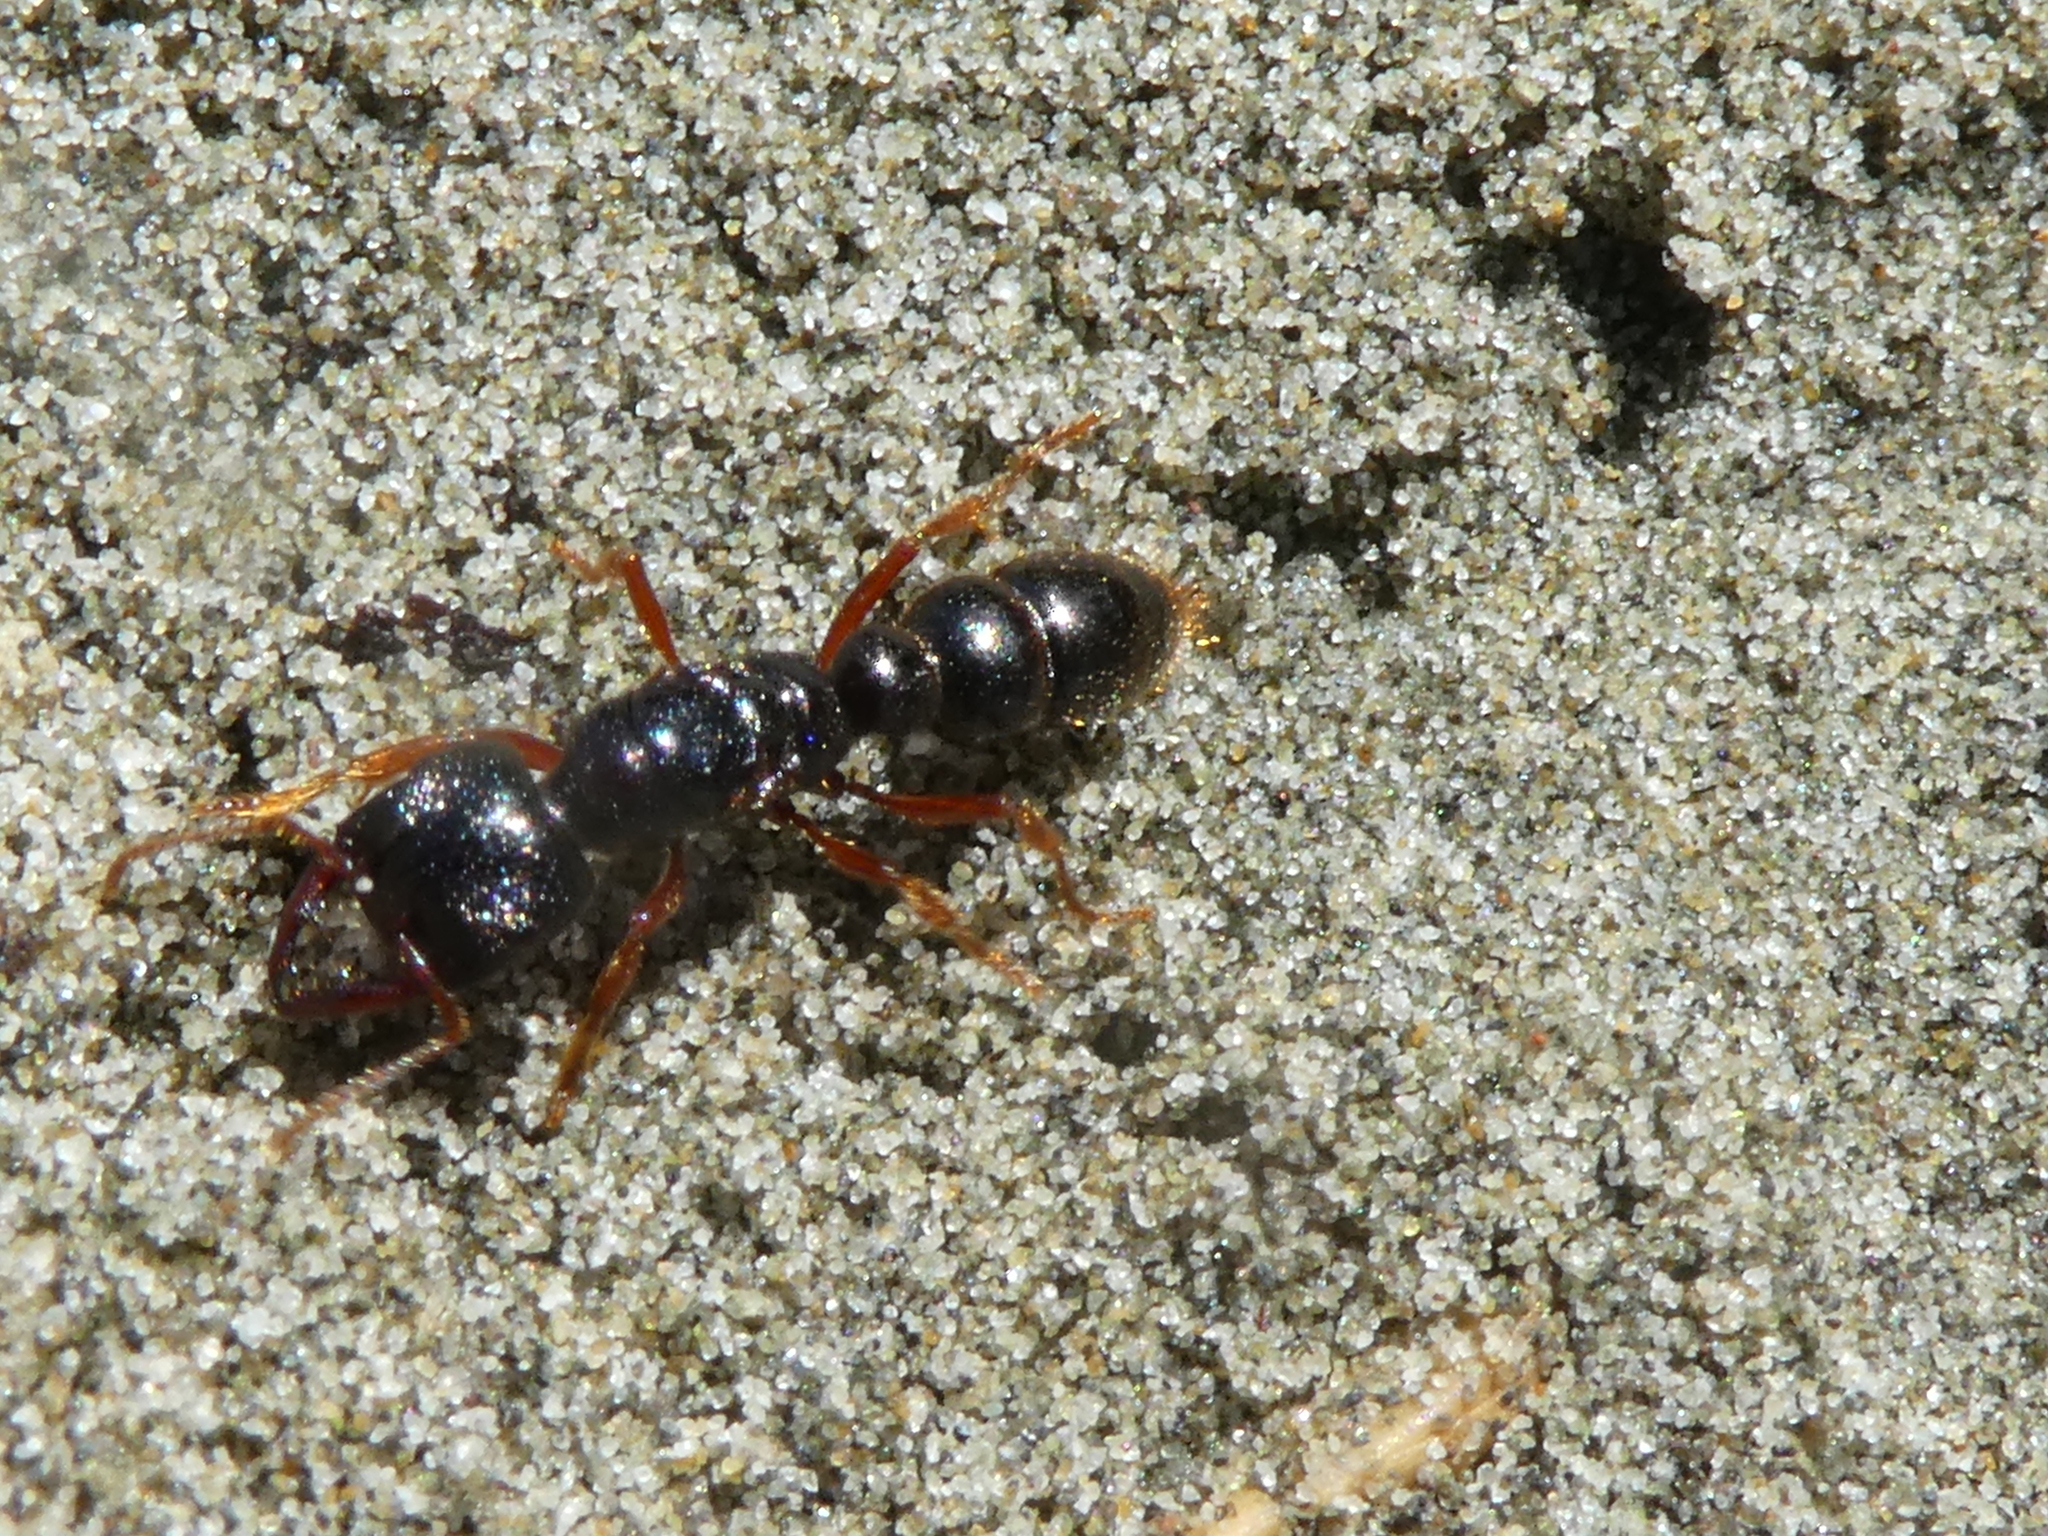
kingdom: Animalia
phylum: Arthropoda
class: Insecta
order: Hymenoptera
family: Formicidae
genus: Amblyopone
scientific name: Amblyopone australis
